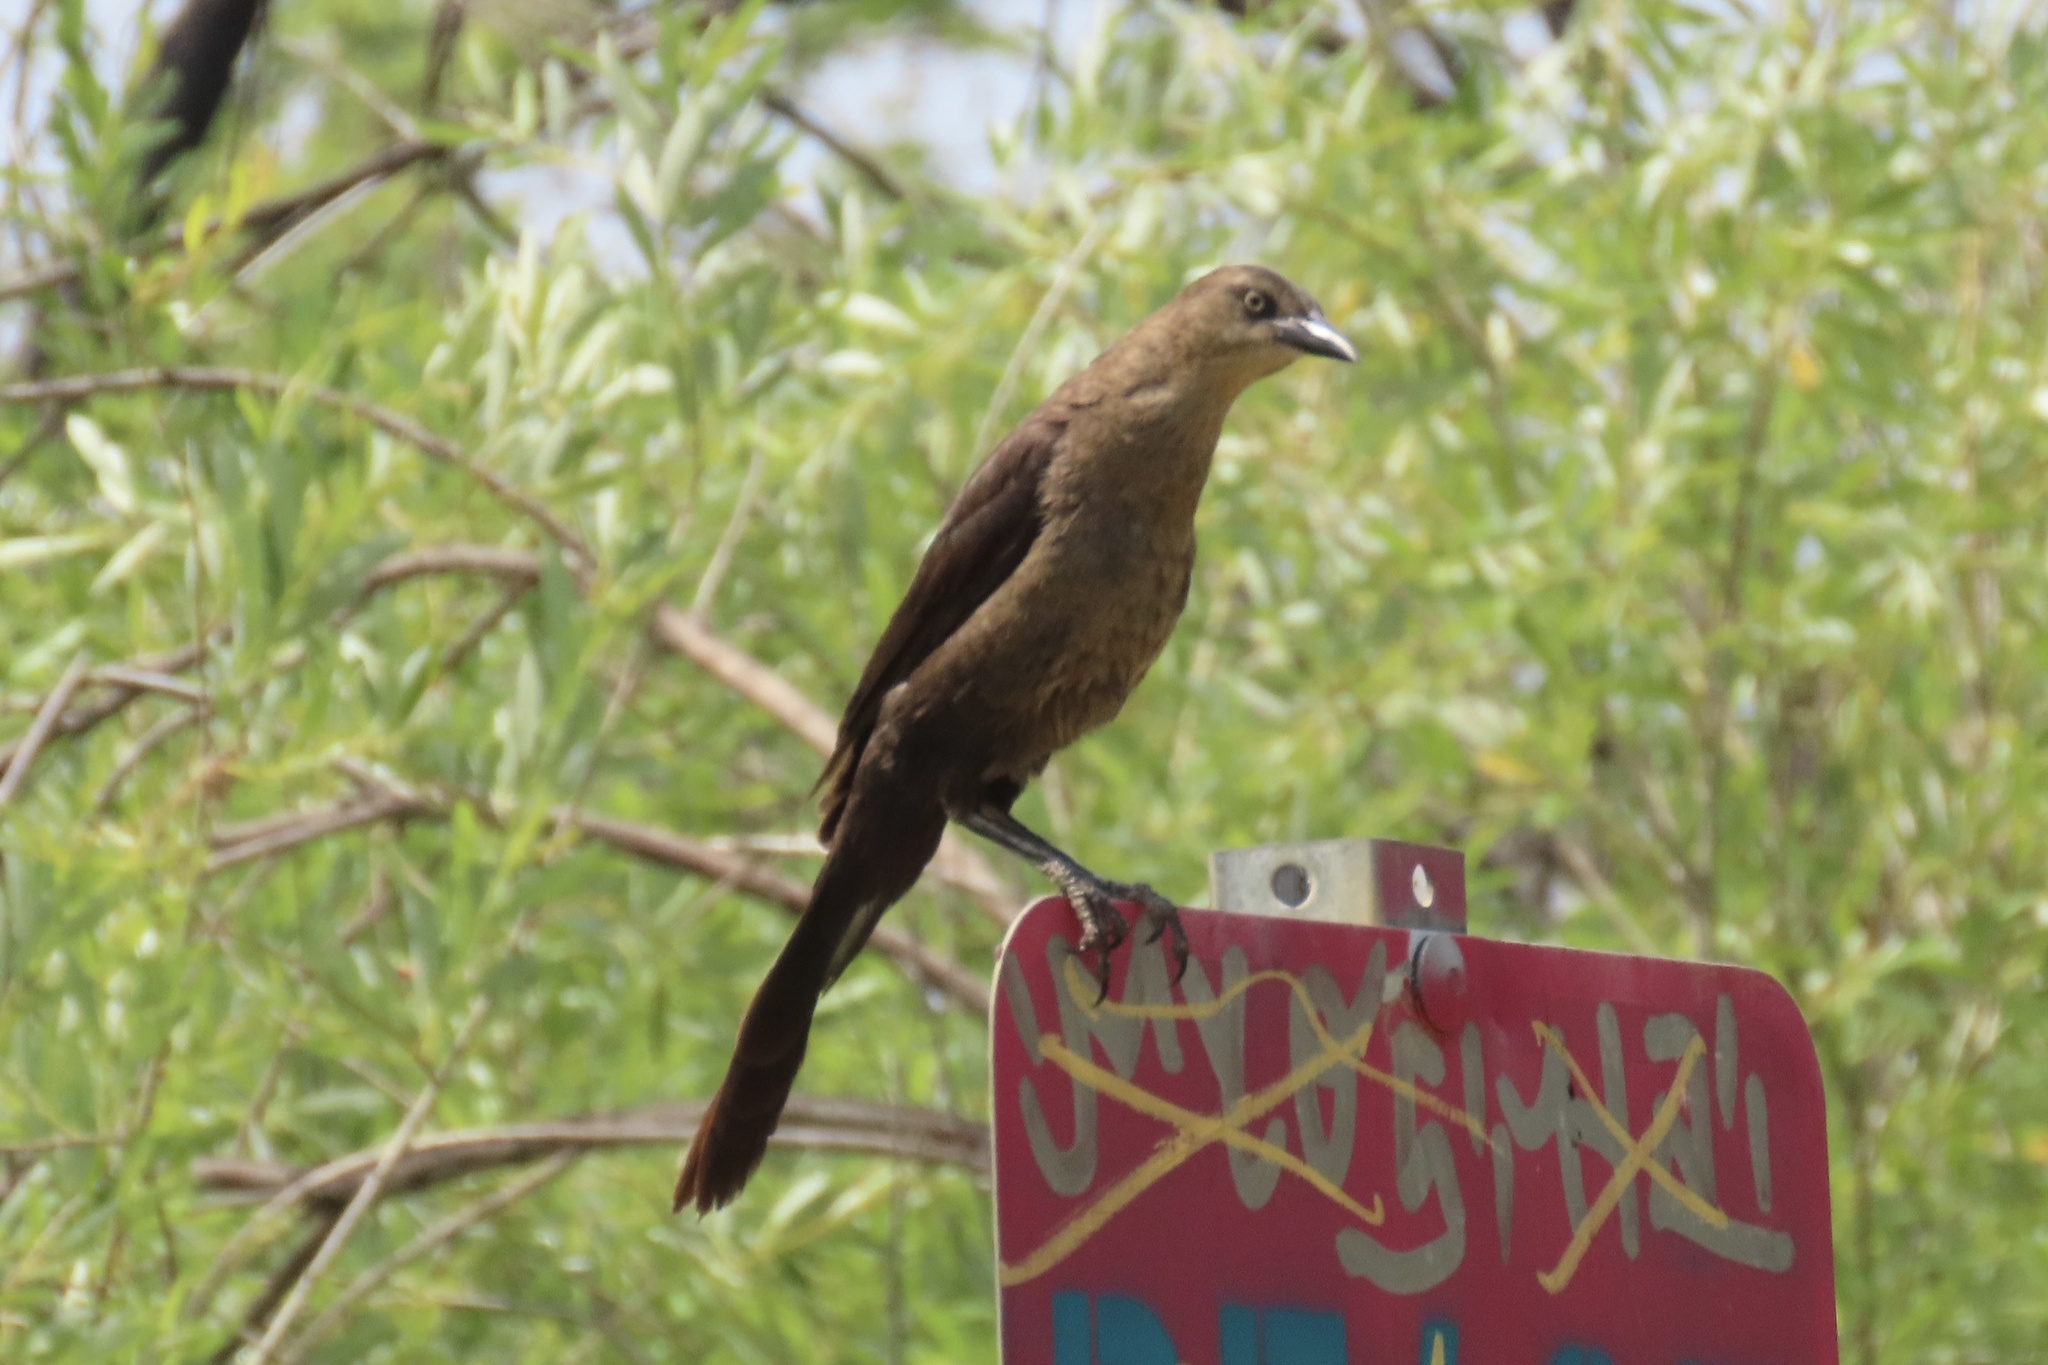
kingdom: Animalia
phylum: Chordata
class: Aves
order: Passeriformes
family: Icteridae
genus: Quiscalus
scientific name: Quiscalus mexicanus
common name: Great-tailed grackle
